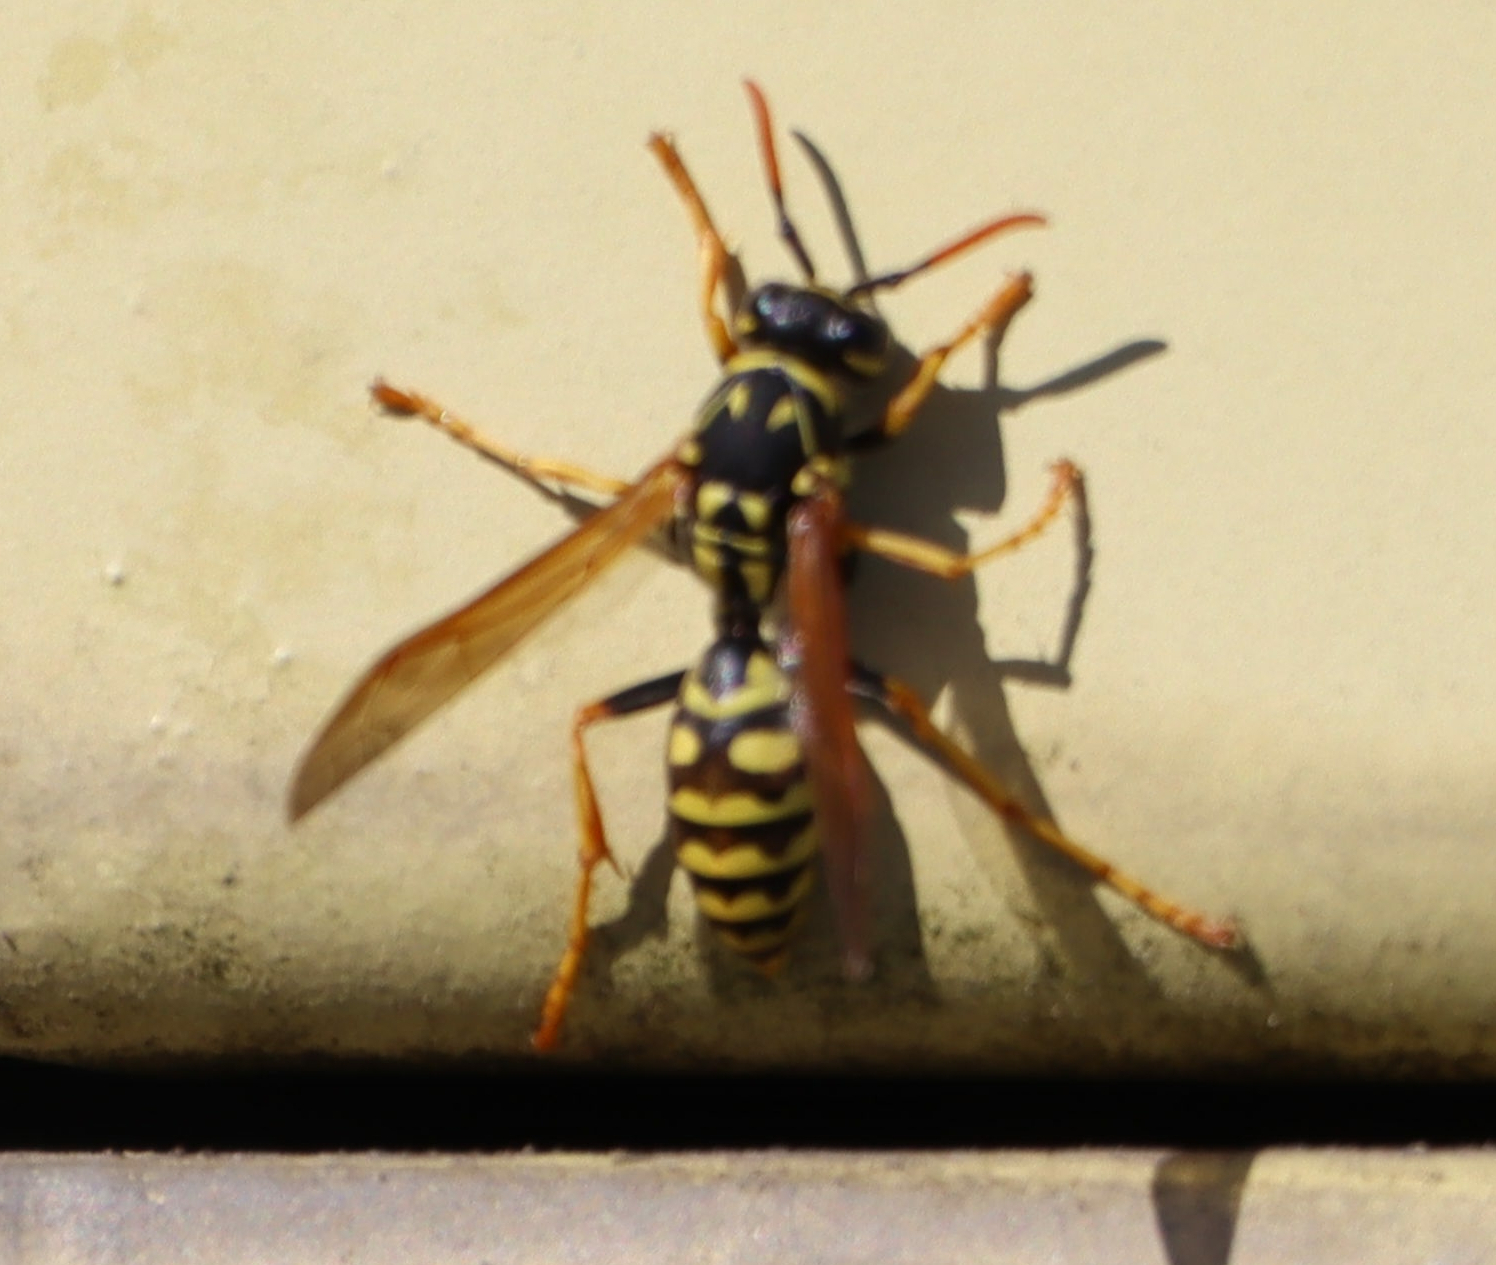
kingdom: Animalia
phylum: Arthropoda
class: Insecta
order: Hymenoptera
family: Eumenidae
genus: Polistes
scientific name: Polistes dominula
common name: Paper wasp
